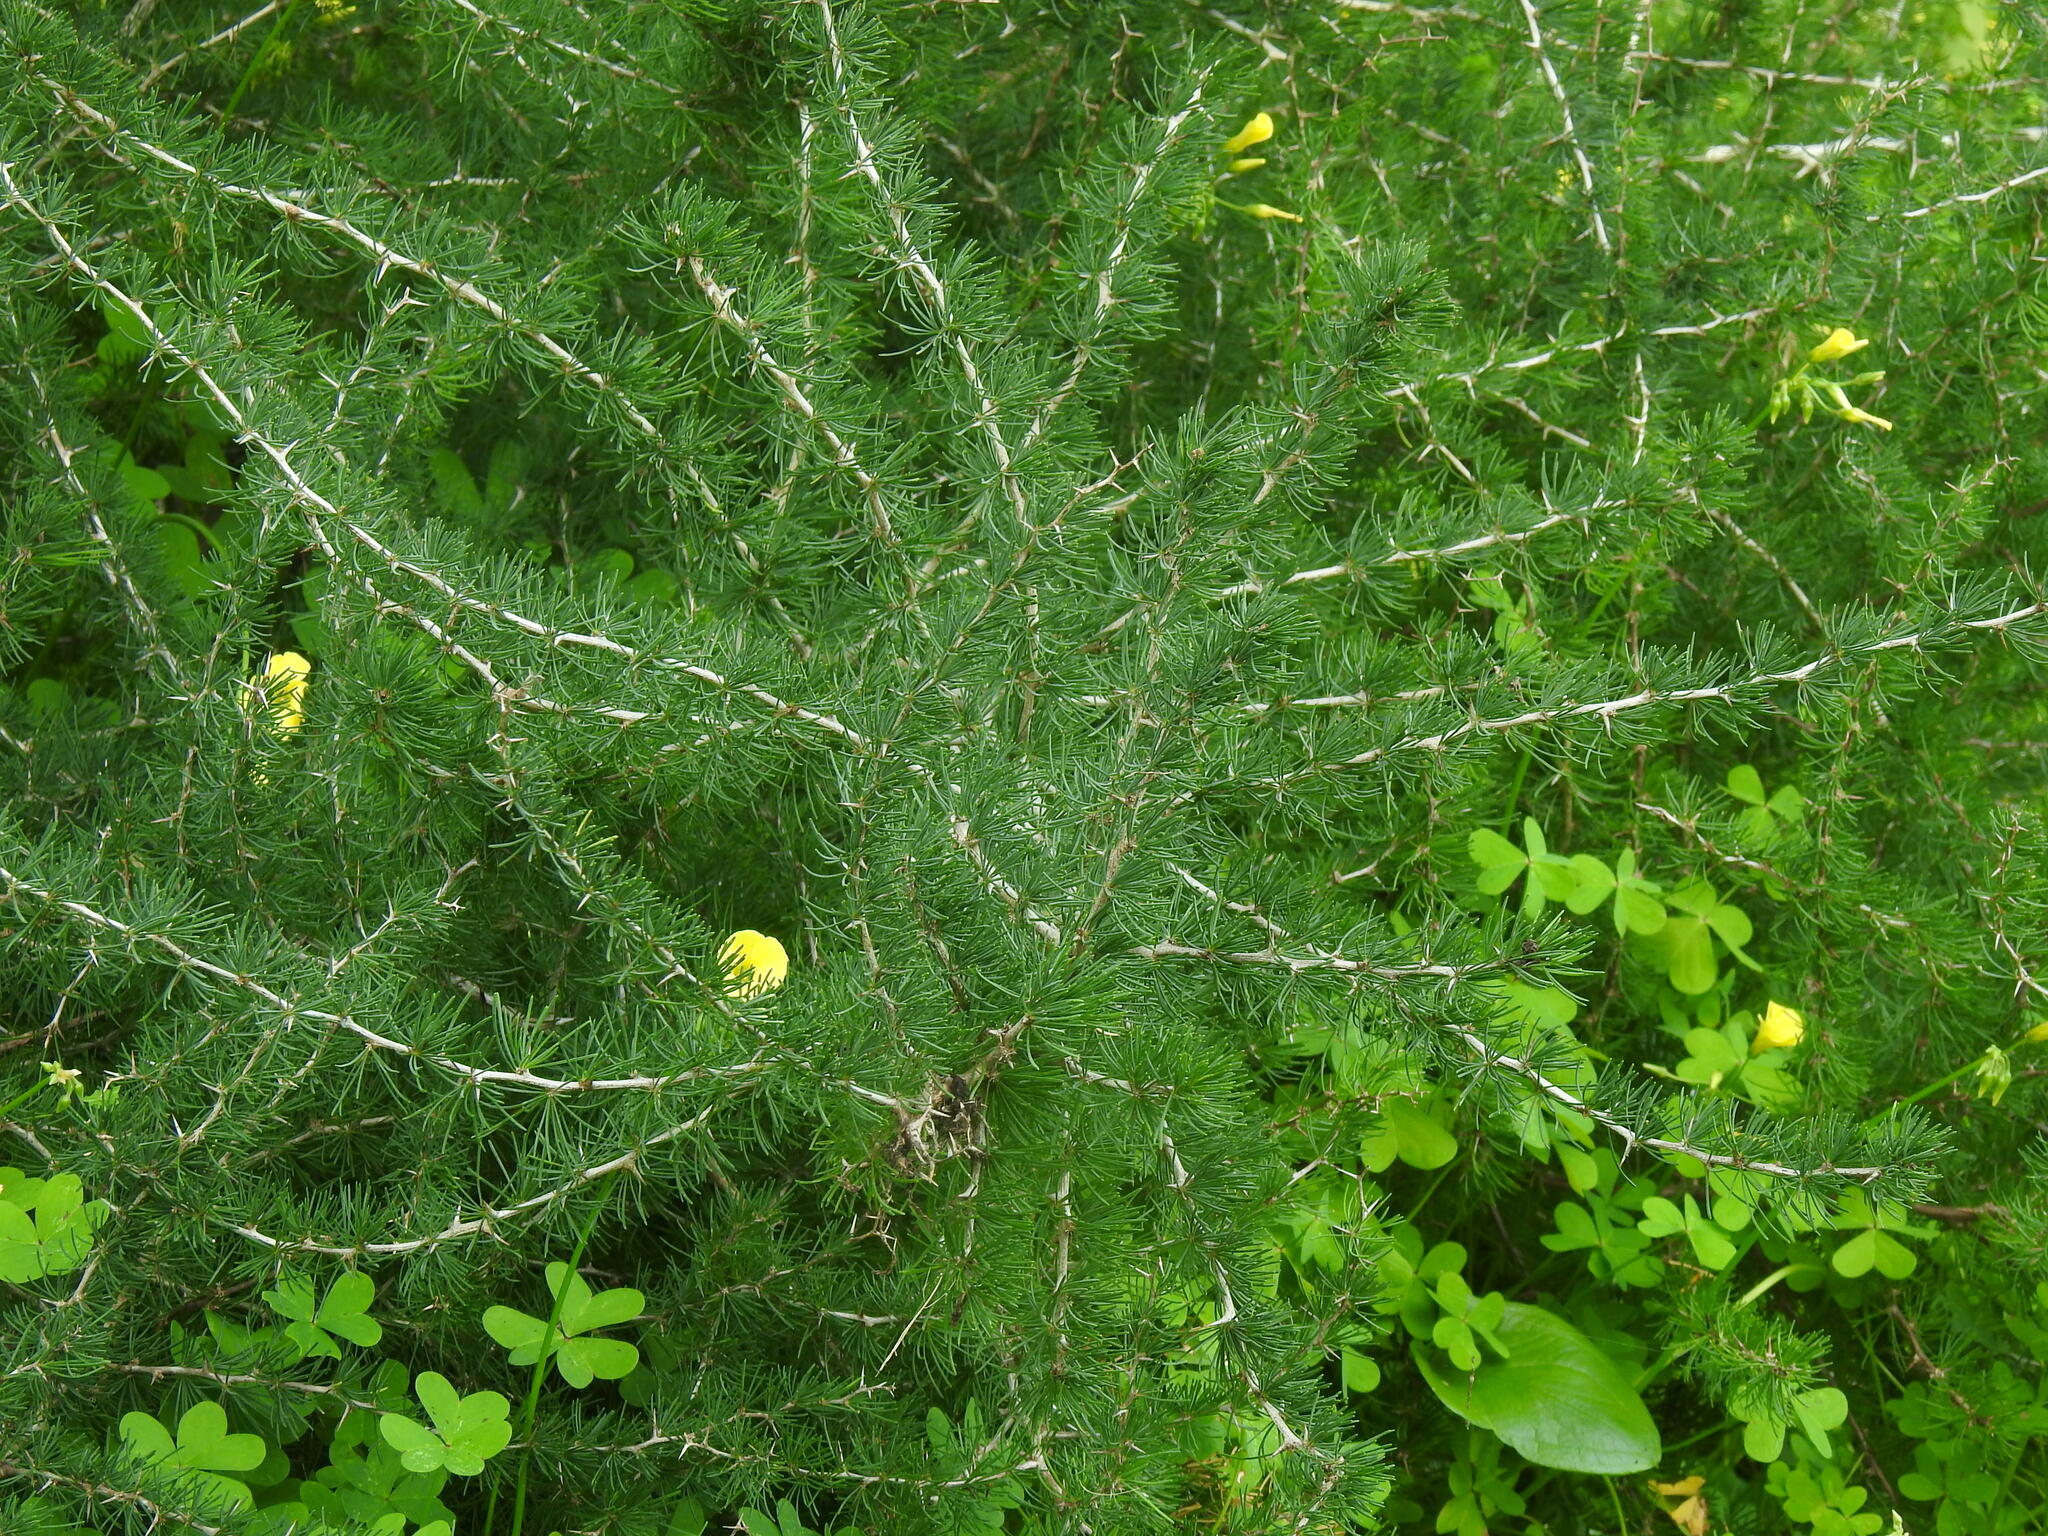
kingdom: Plantae
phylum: Tracheophyta
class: Liliopsida
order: Asparagales
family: Asparagaceae
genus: Asparagus
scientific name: Asparagus albus
